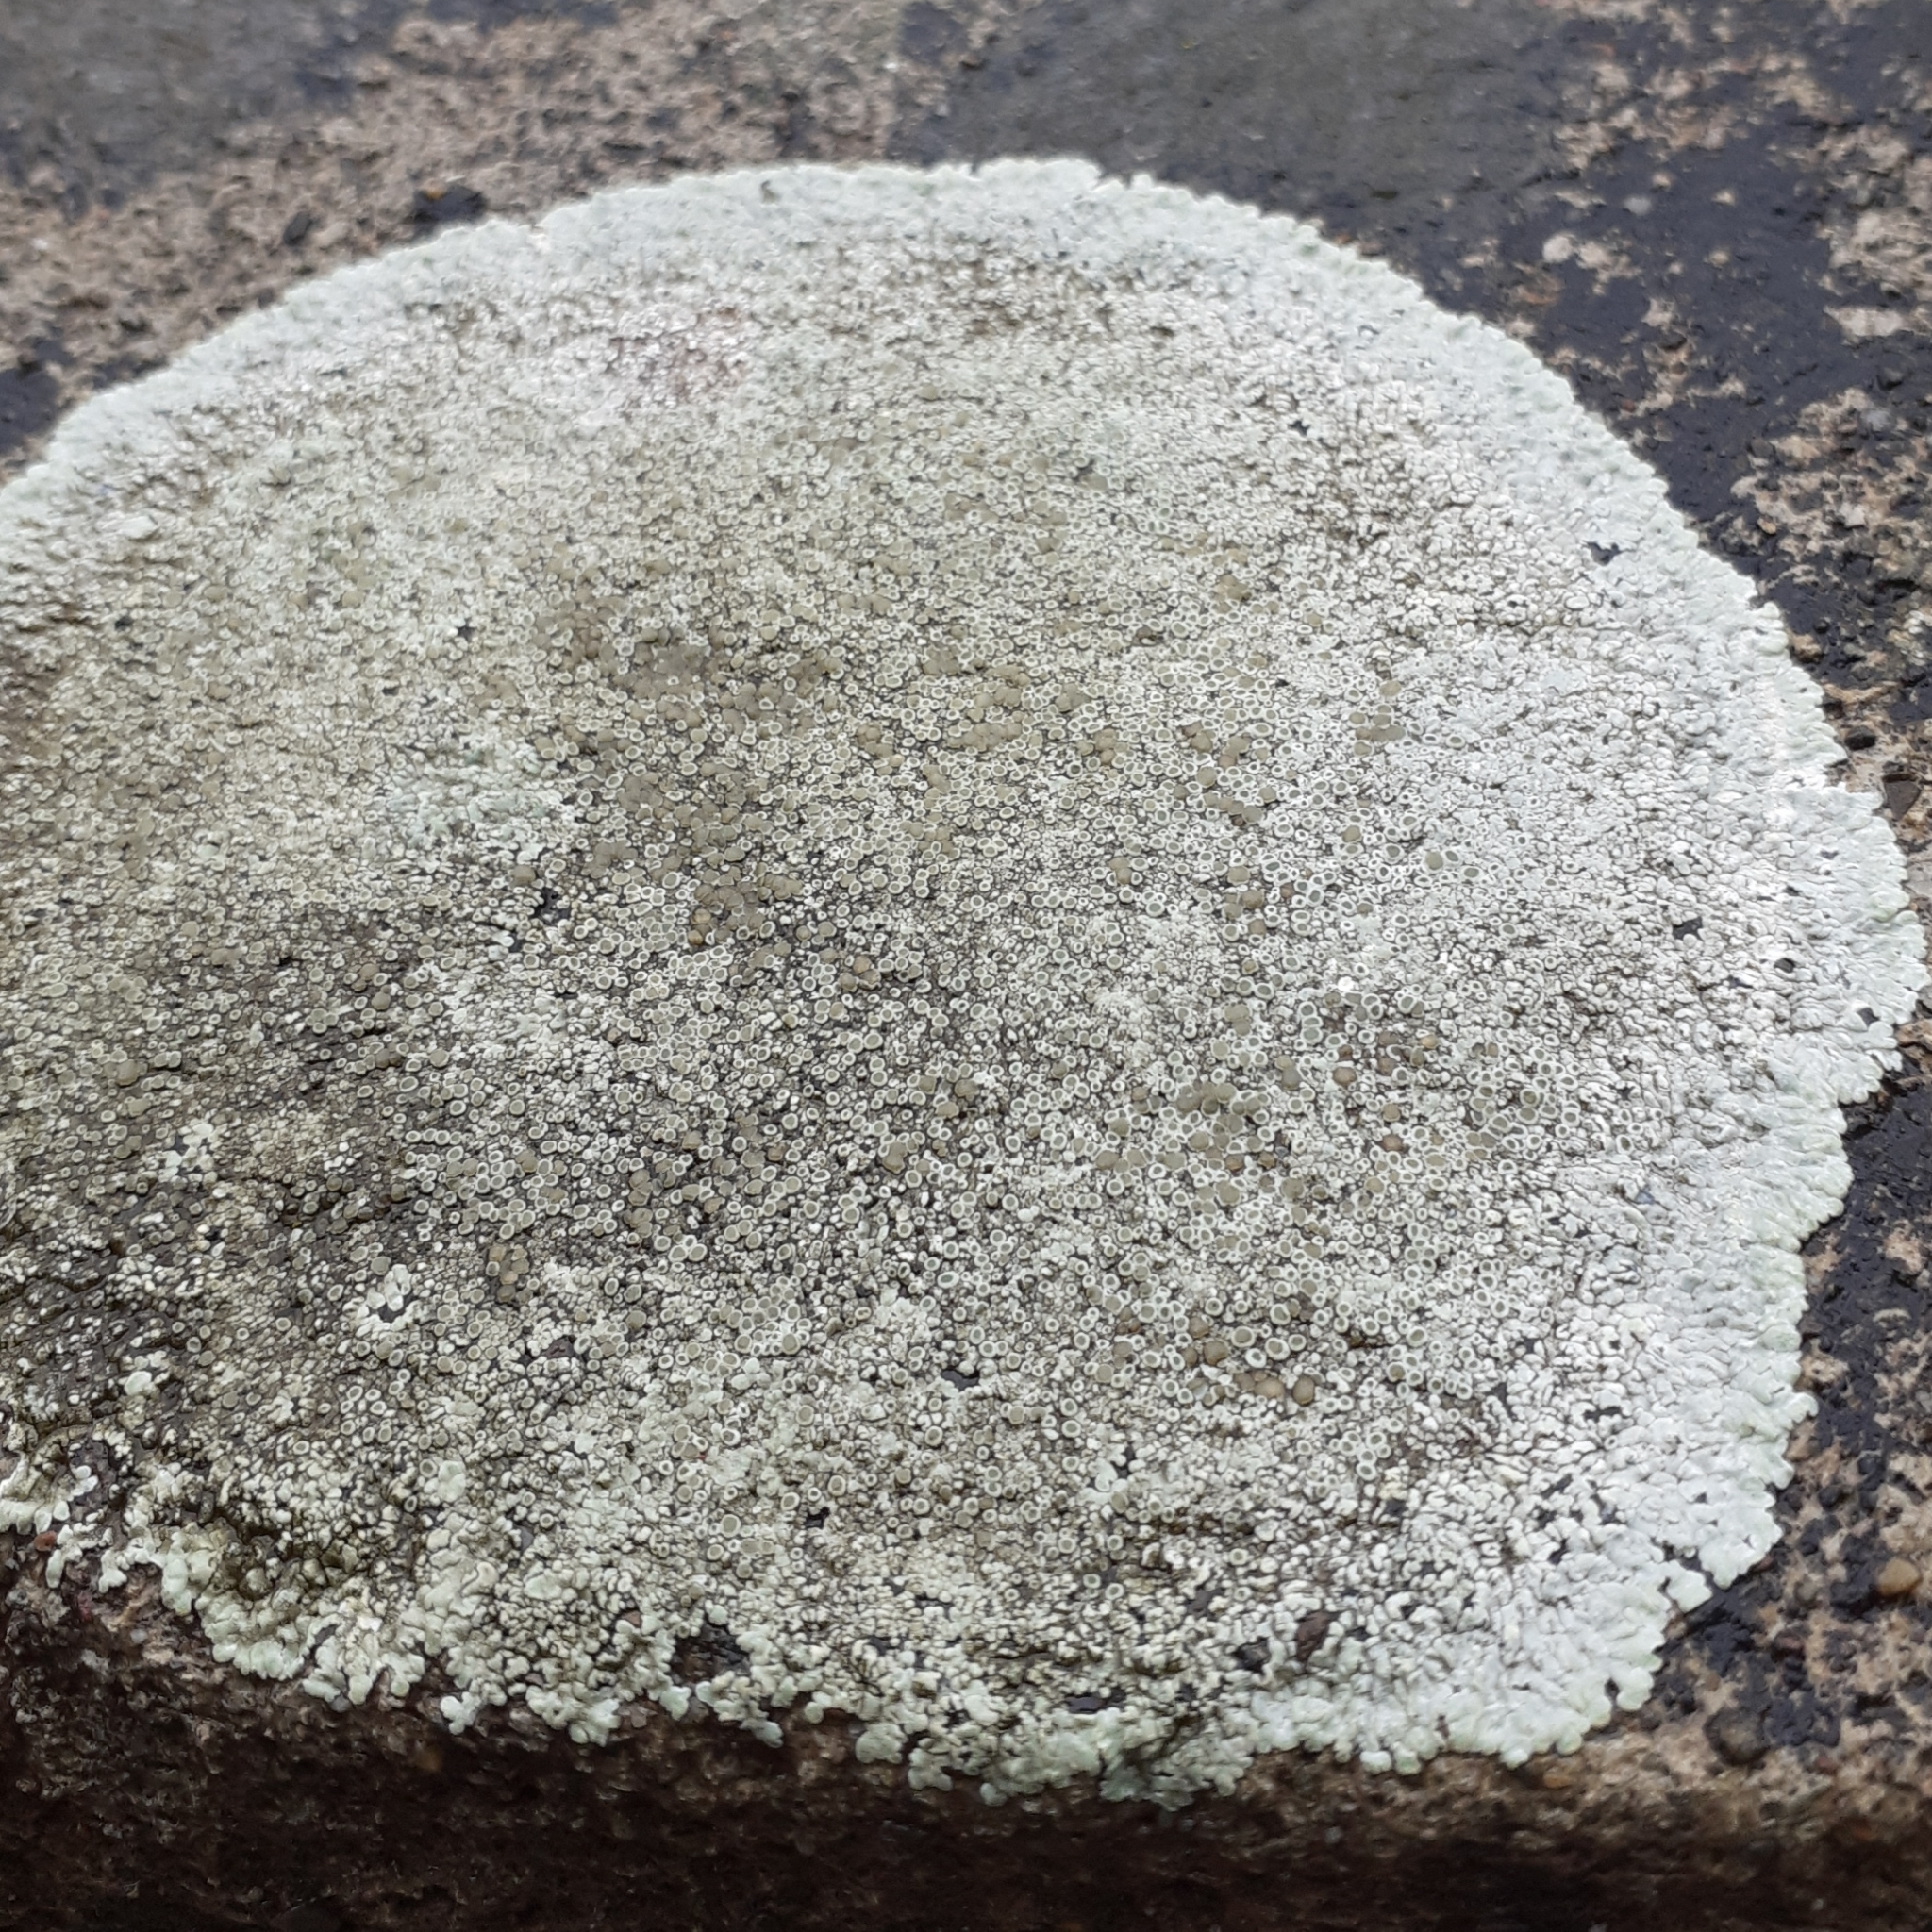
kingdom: Fungi
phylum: Ascomycota
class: Lecanoromycetes
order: Lecanorales
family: Lecanoraceae
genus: Protoparmeliopsis
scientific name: Protoparmeliopsis muralis
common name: Stonewall rim lichen
